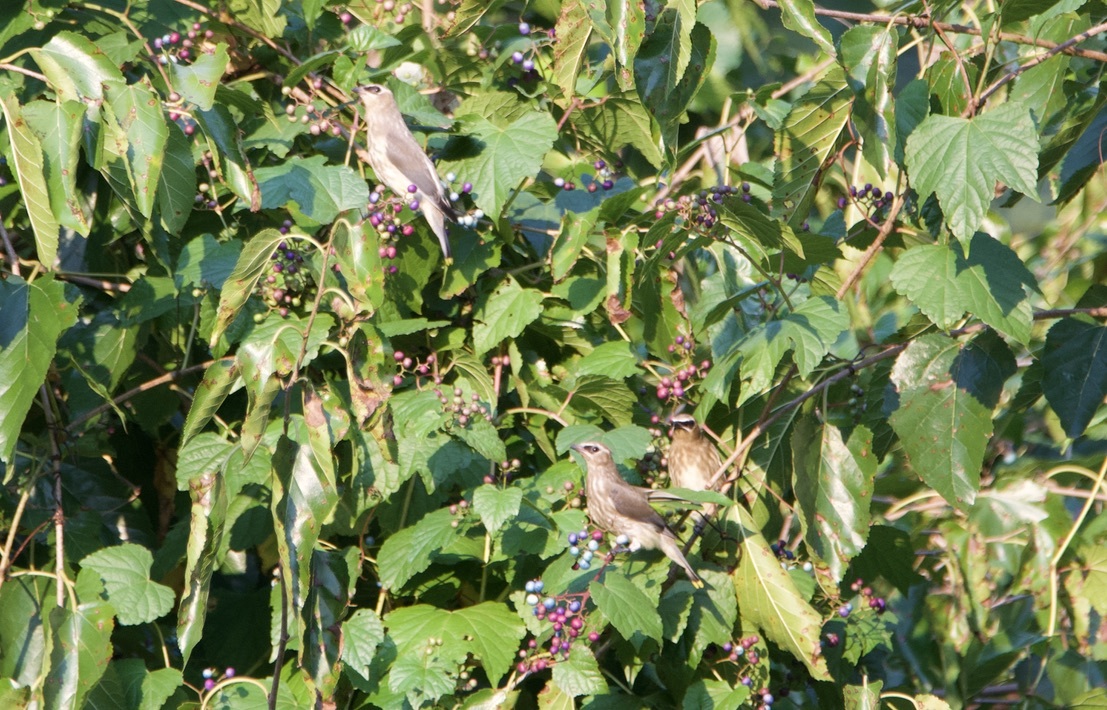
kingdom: Animalia
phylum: Chordata
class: Aves
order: Passeriformes
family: Bombycillidae
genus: Bombycilla
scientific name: Bombycilla cedrorum
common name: Cedar waxwing
